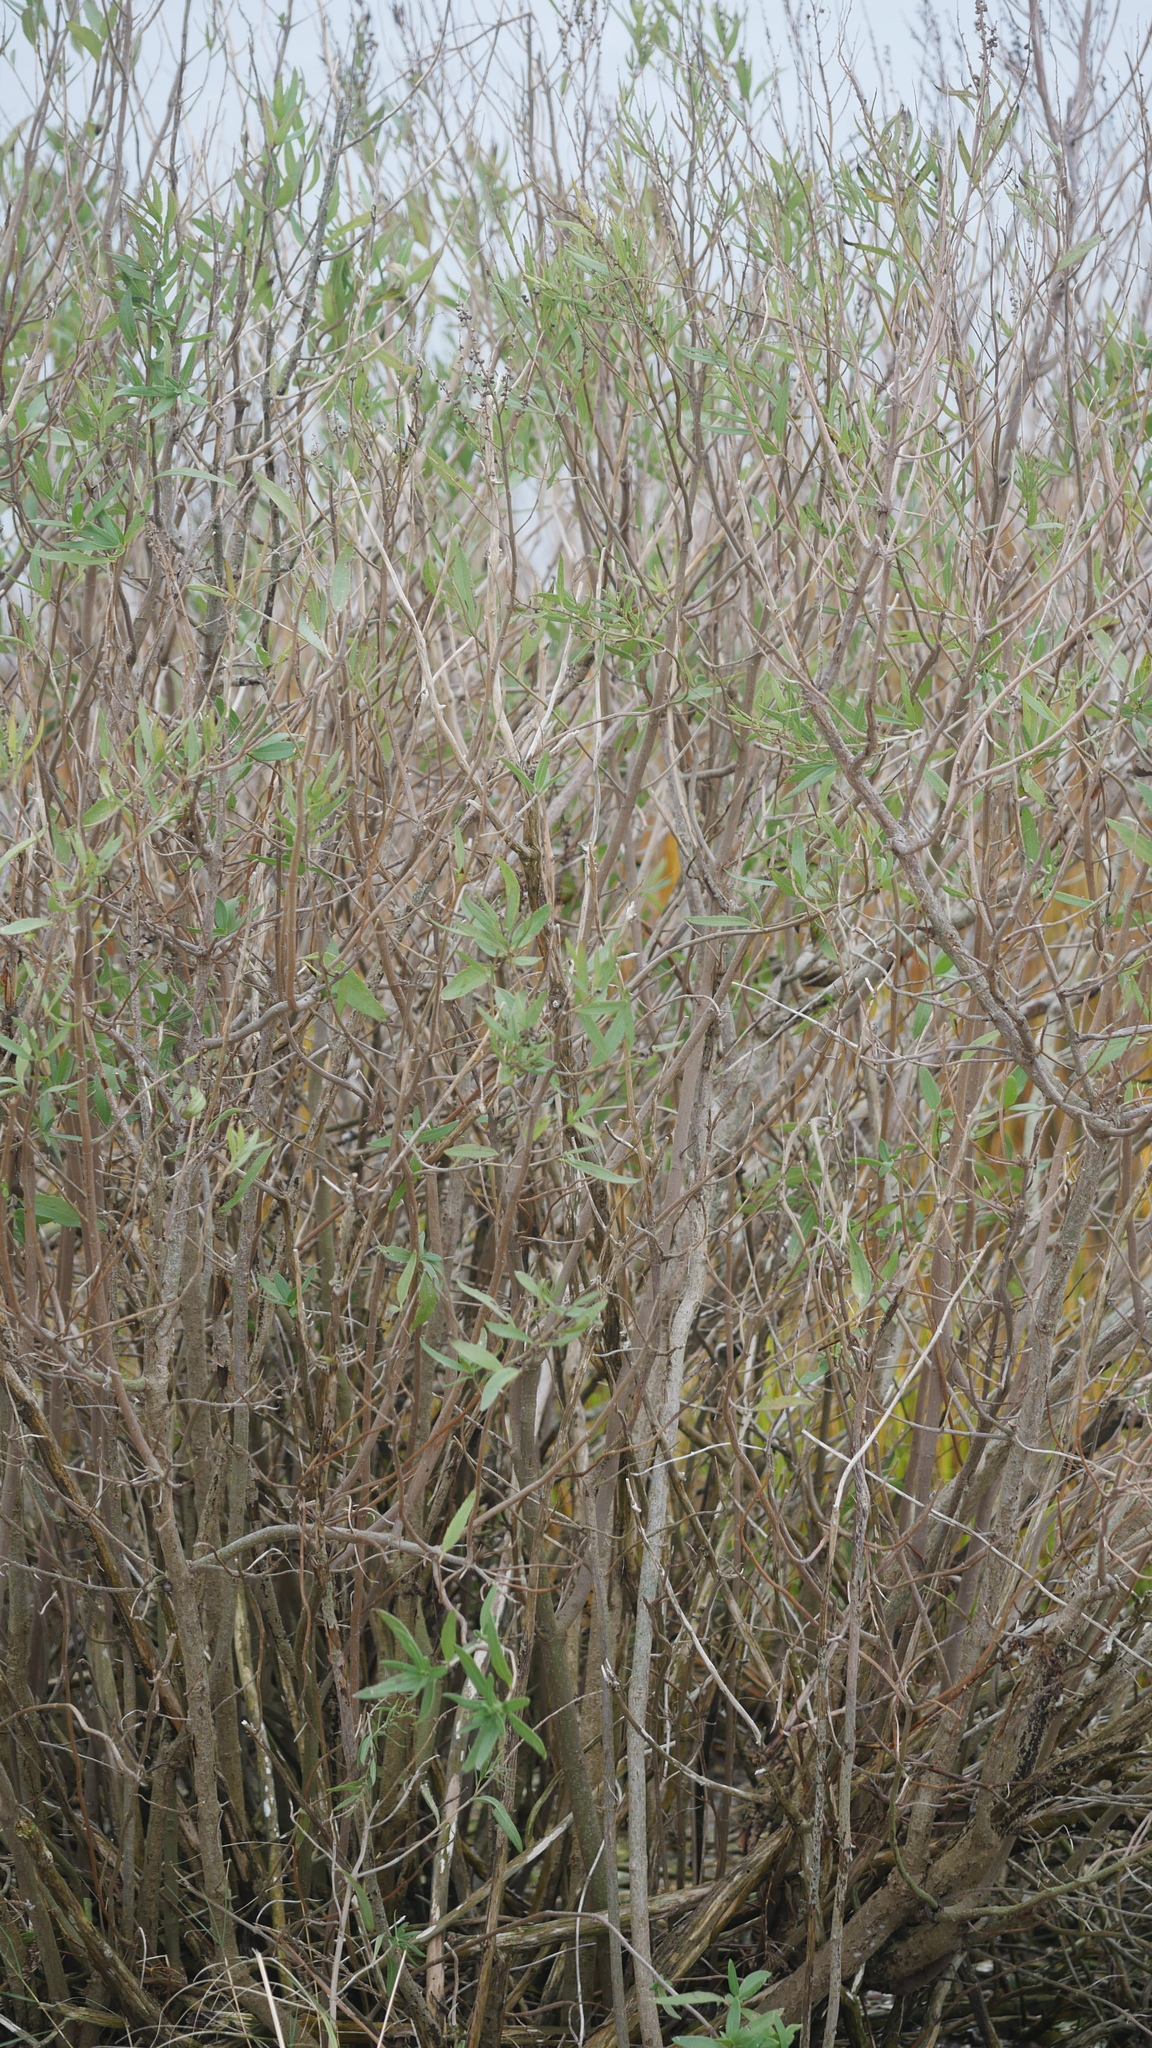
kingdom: Plantae
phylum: Tracheophyta
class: Magnoliopsida
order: Asterales
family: Asteraceae
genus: Iva
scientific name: Iva frutescens
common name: Big-leaved marsh-elder
